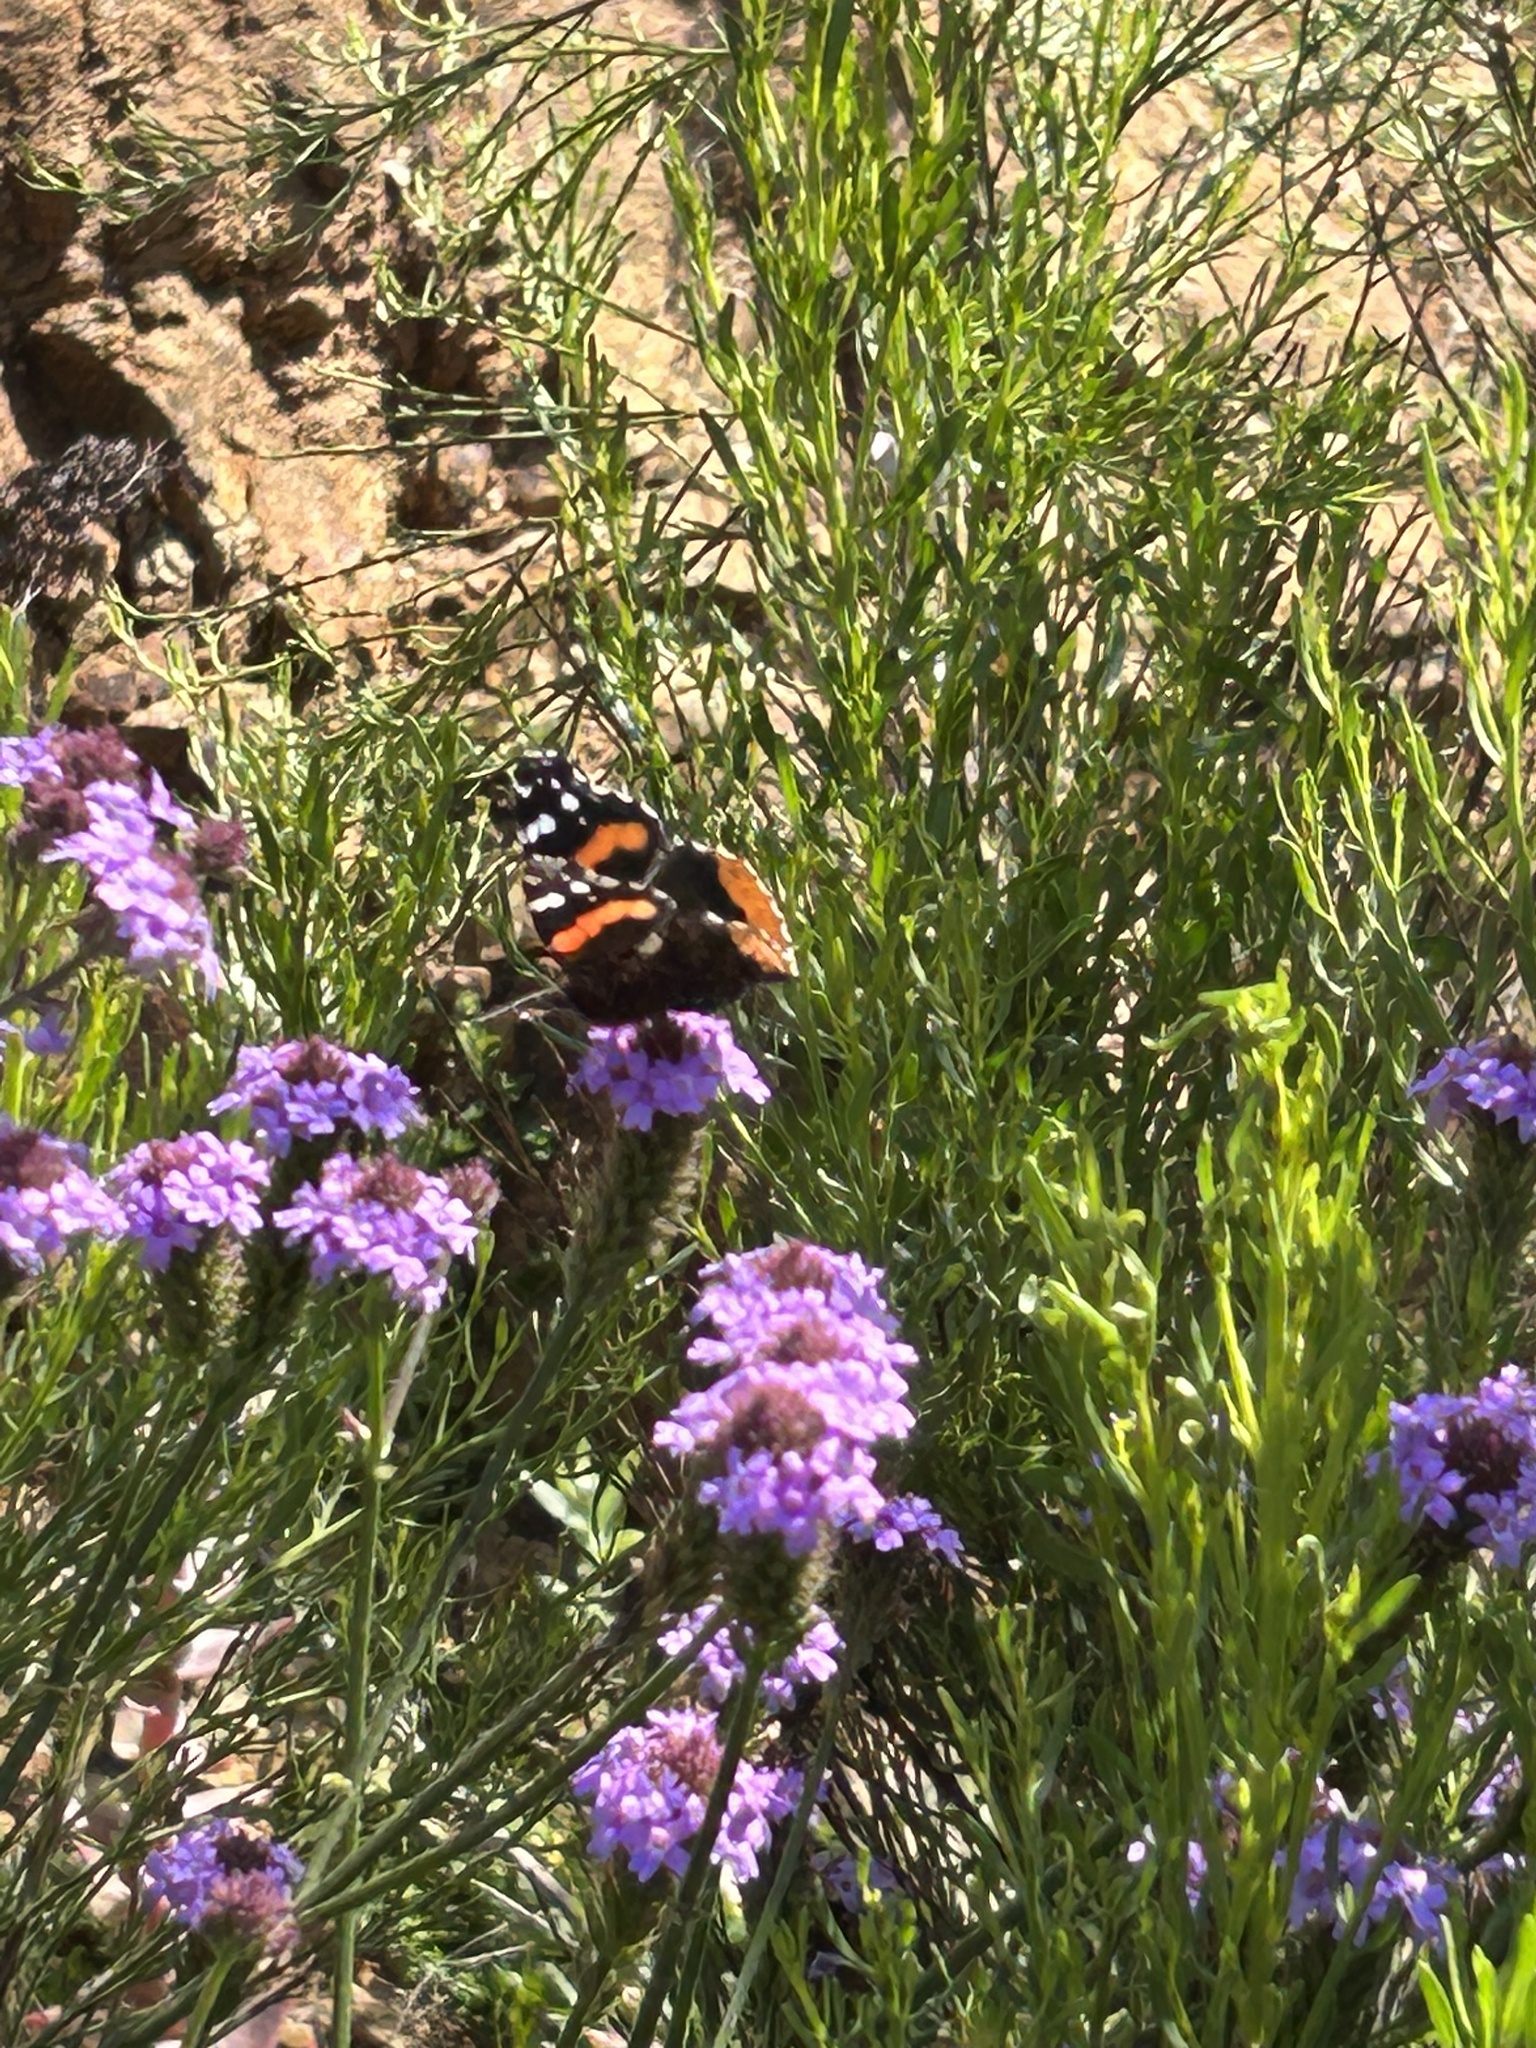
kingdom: Animalia
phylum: Arthropoda
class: Insecta
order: Lepidoptera
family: Nymphalidae
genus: Vanessa
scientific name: Vanessa atalanta
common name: Red admiral
